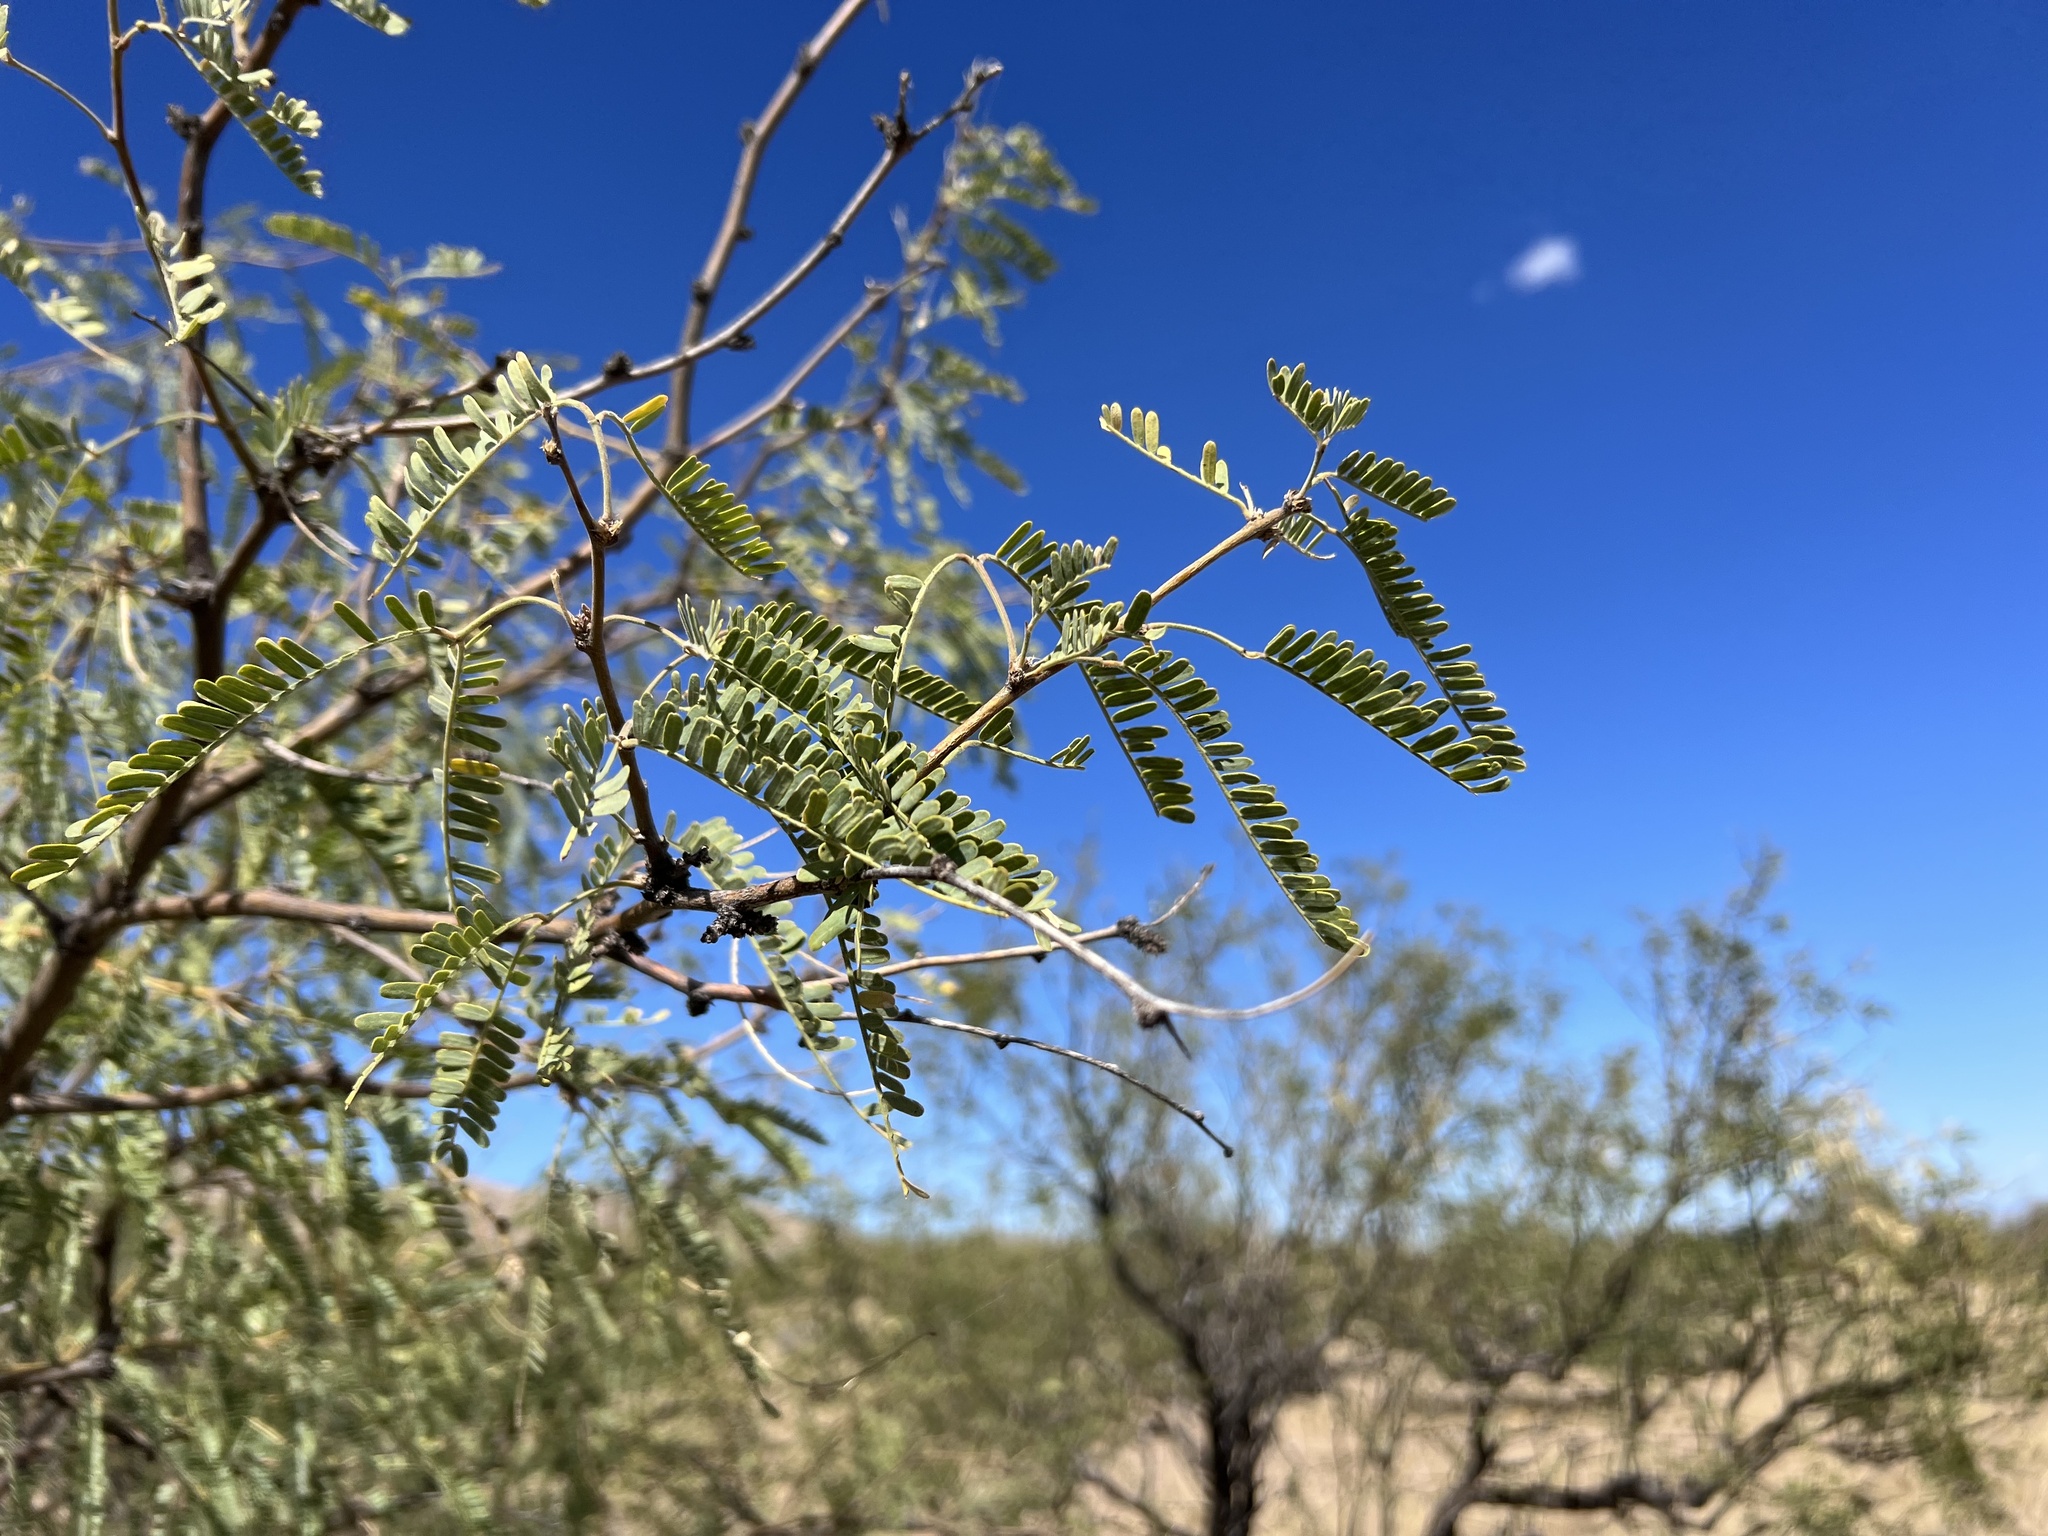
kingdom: Plantae
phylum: Tracheophyta
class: Magnoliopsida
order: Fabales
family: Fabaceae
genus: Prosopis
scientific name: Prosopis velutina
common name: Velvet mesquite
